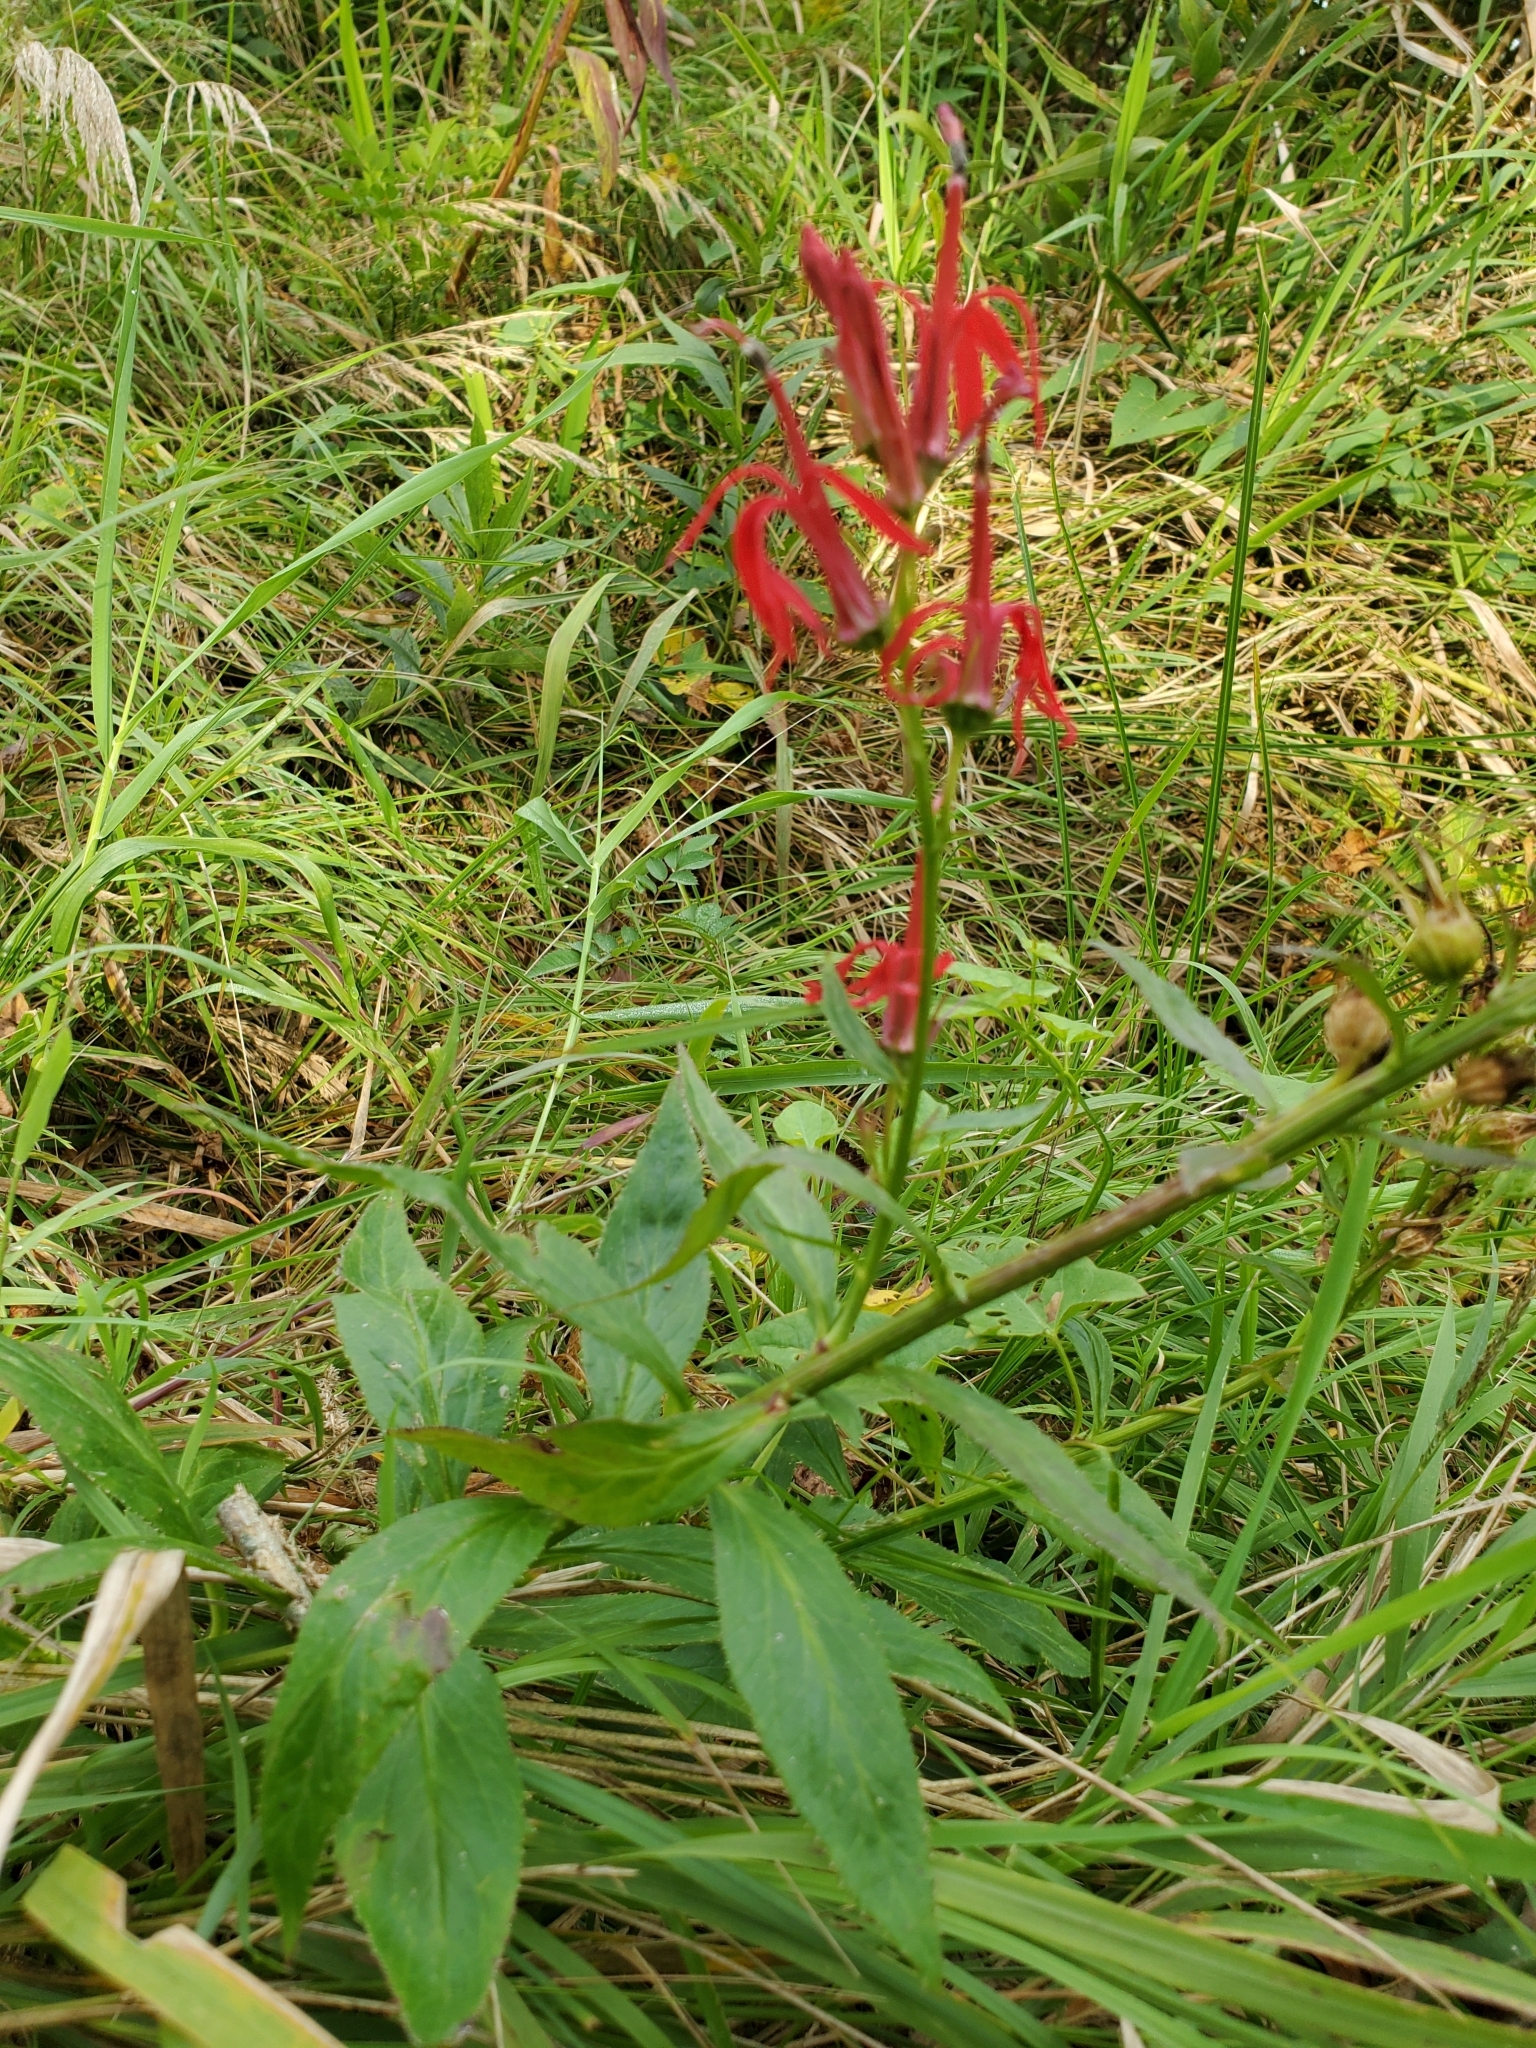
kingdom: Plantae
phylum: Tracheophyta
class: Magnoliopsida
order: Asterales
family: Campanulaceae
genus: Lobelia
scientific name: Lobelia cardinalis
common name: Cardinal flower
